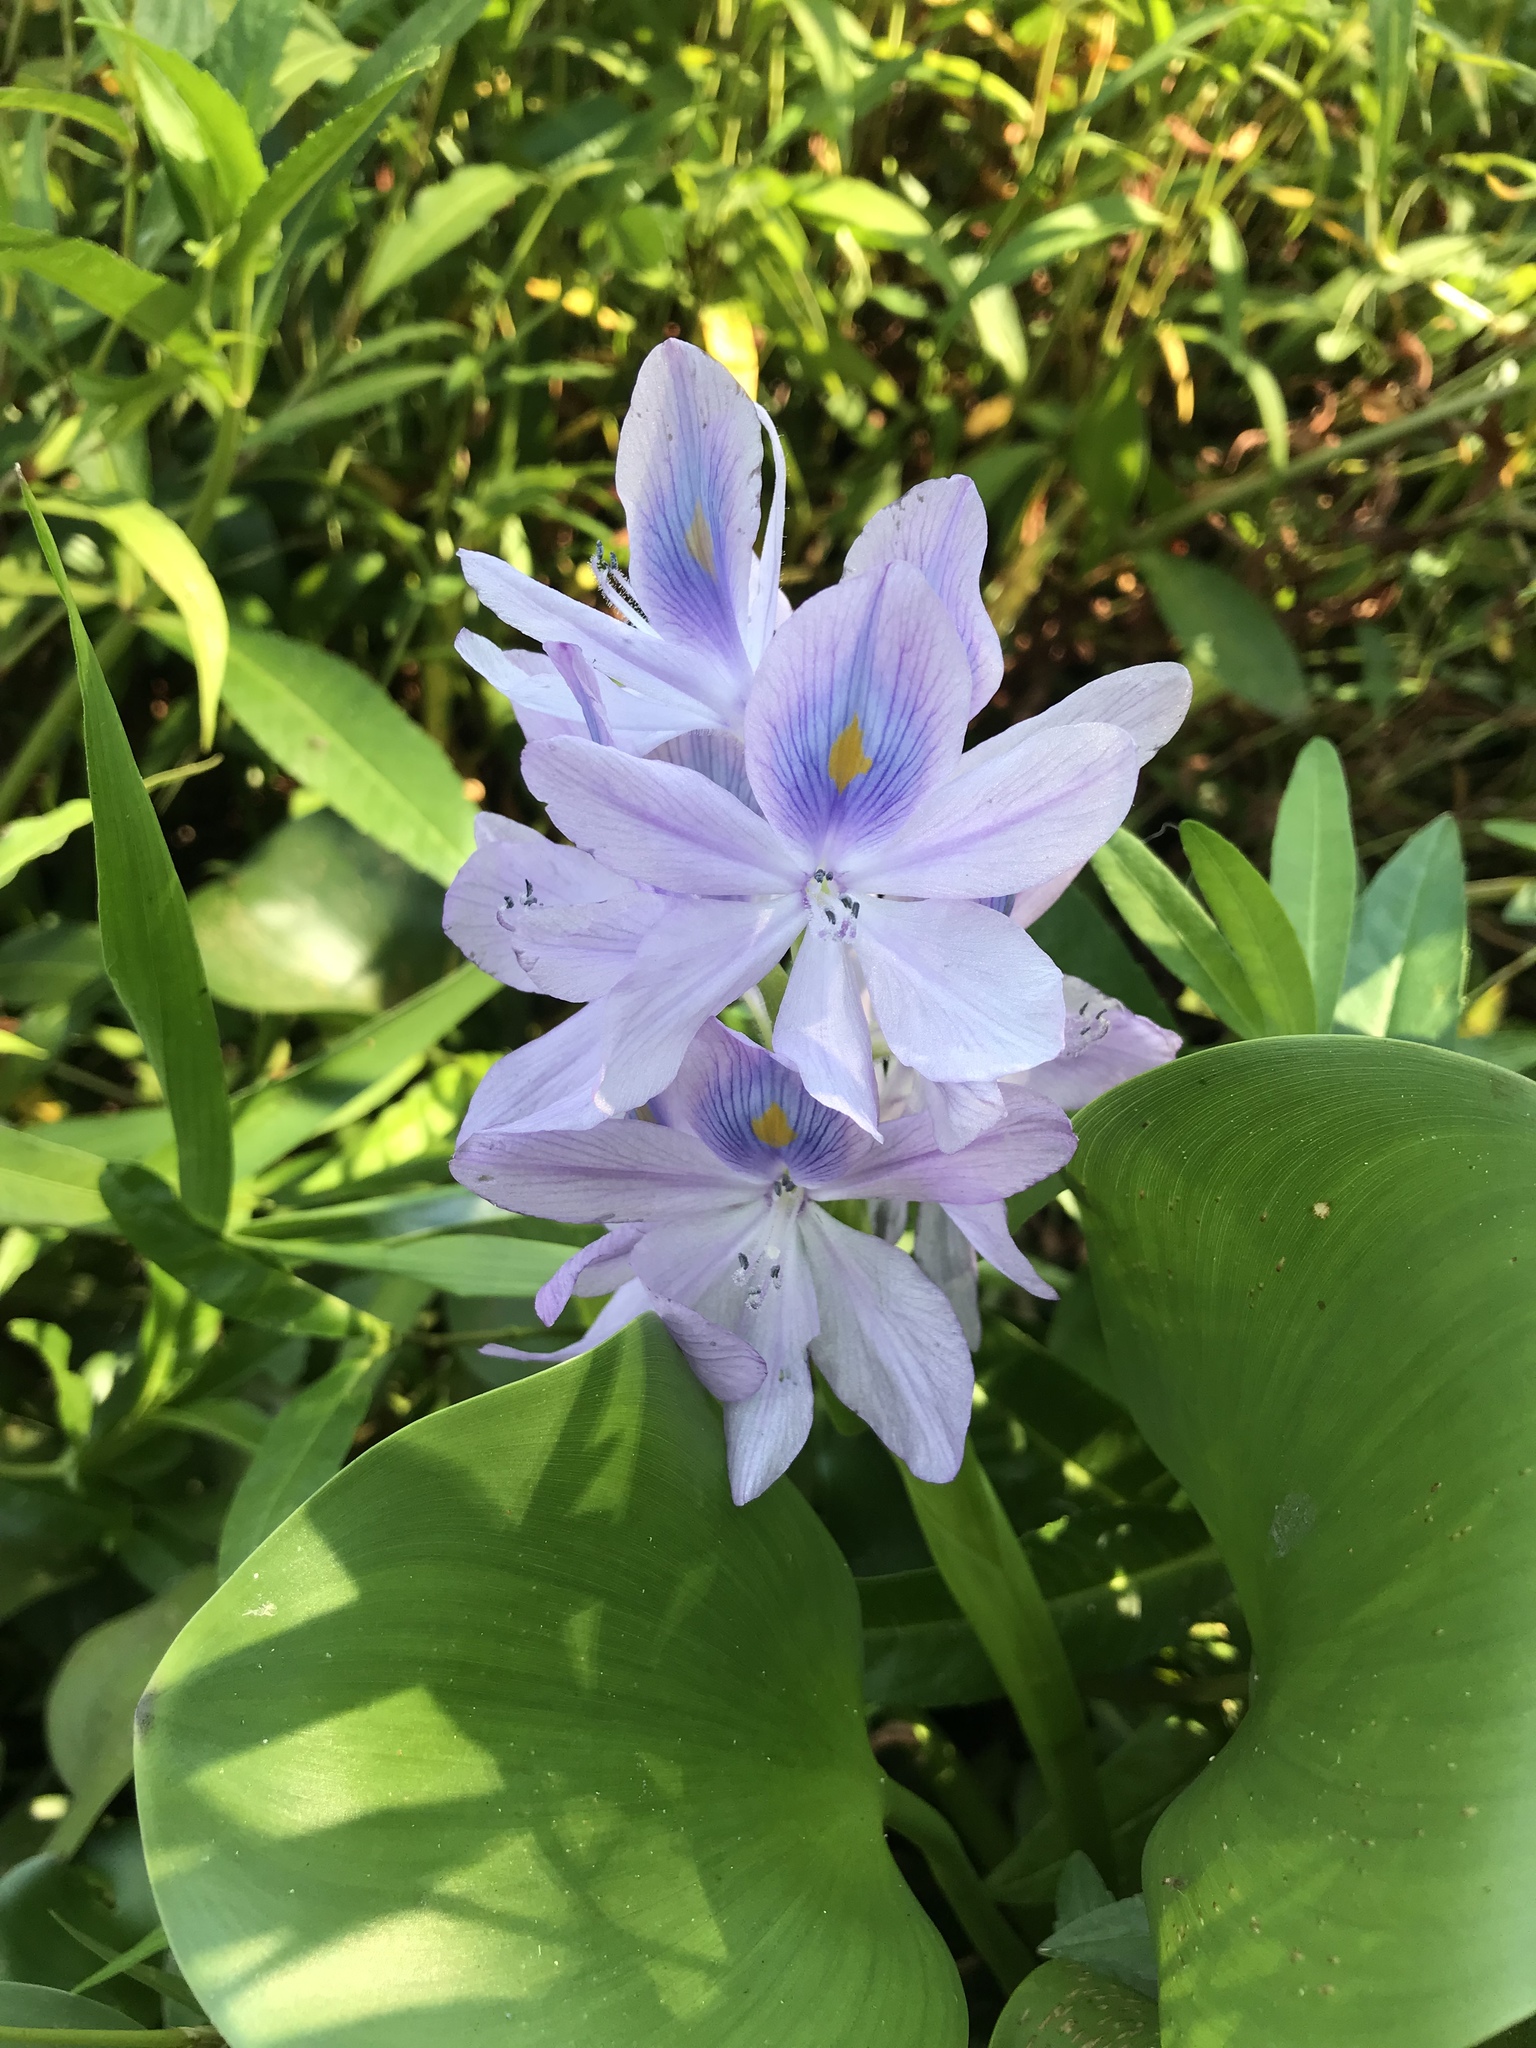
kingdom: Plantae
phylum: Tracheophyta
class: Liliopsida
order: Commelinales
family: Pontederiaceae
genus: Pontederia
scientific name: Pontederia crassipes
